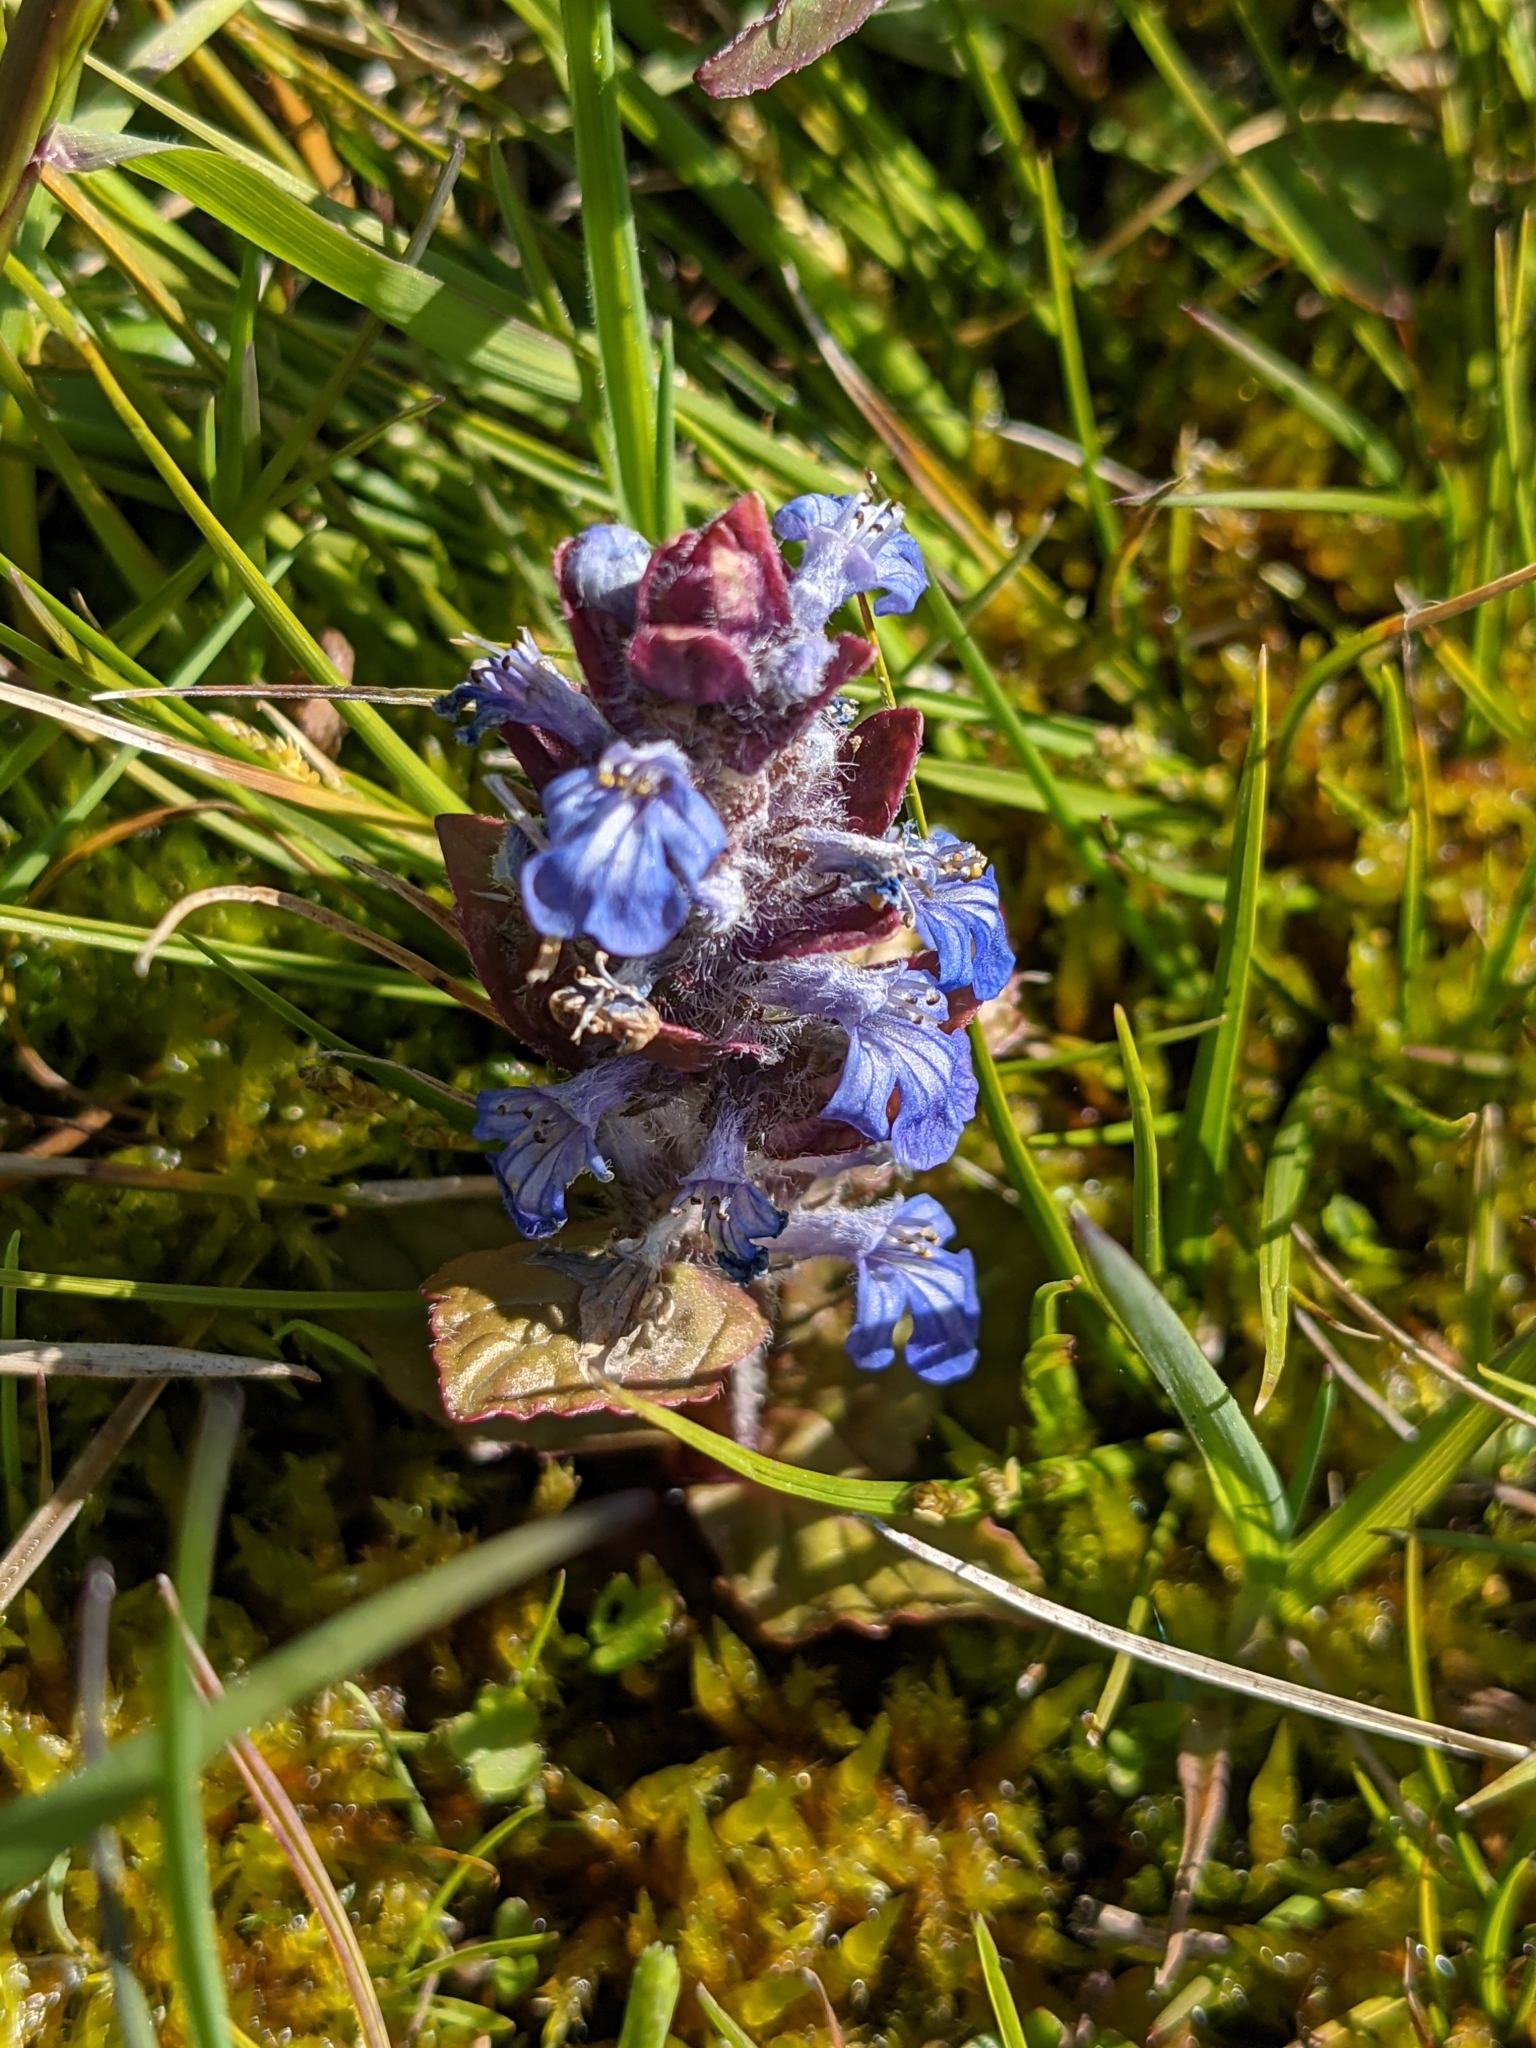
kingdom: Plantae
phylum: Tracheophyta
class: Magnoliopsida
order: Lamiales
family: Lamiaceae
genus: Ajuga
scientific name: Ajuga reptans
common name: Bugle
